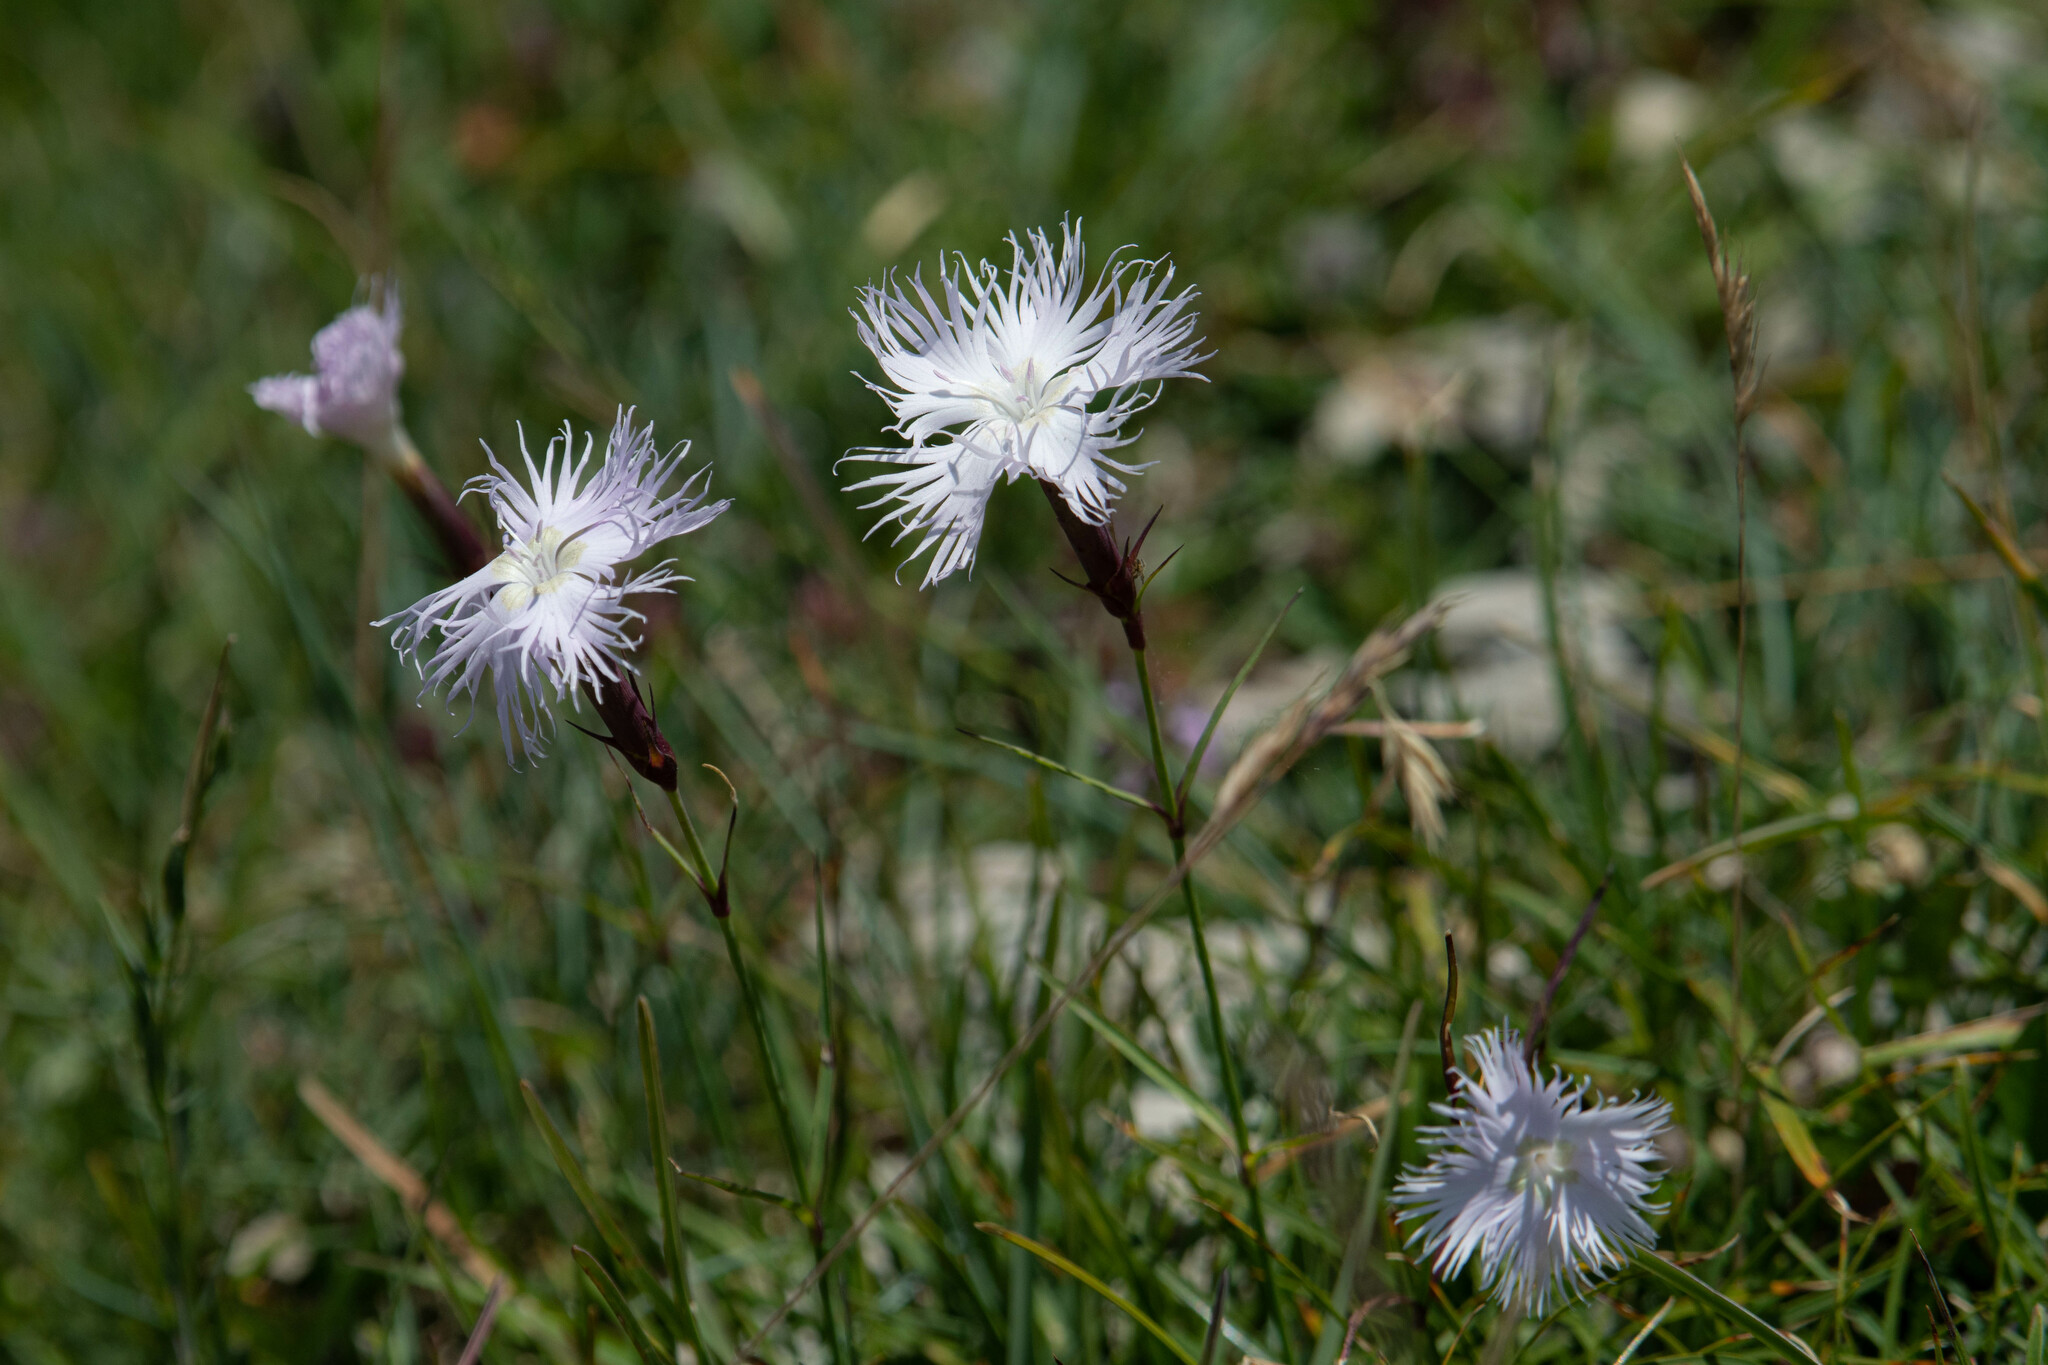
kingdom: Plantae
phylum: Tracheophyta
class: Magnoliopsida
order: Caryophyllales
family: Caryophyllaceae
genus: Dianthus
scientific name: Dianthus hyssopifolius
